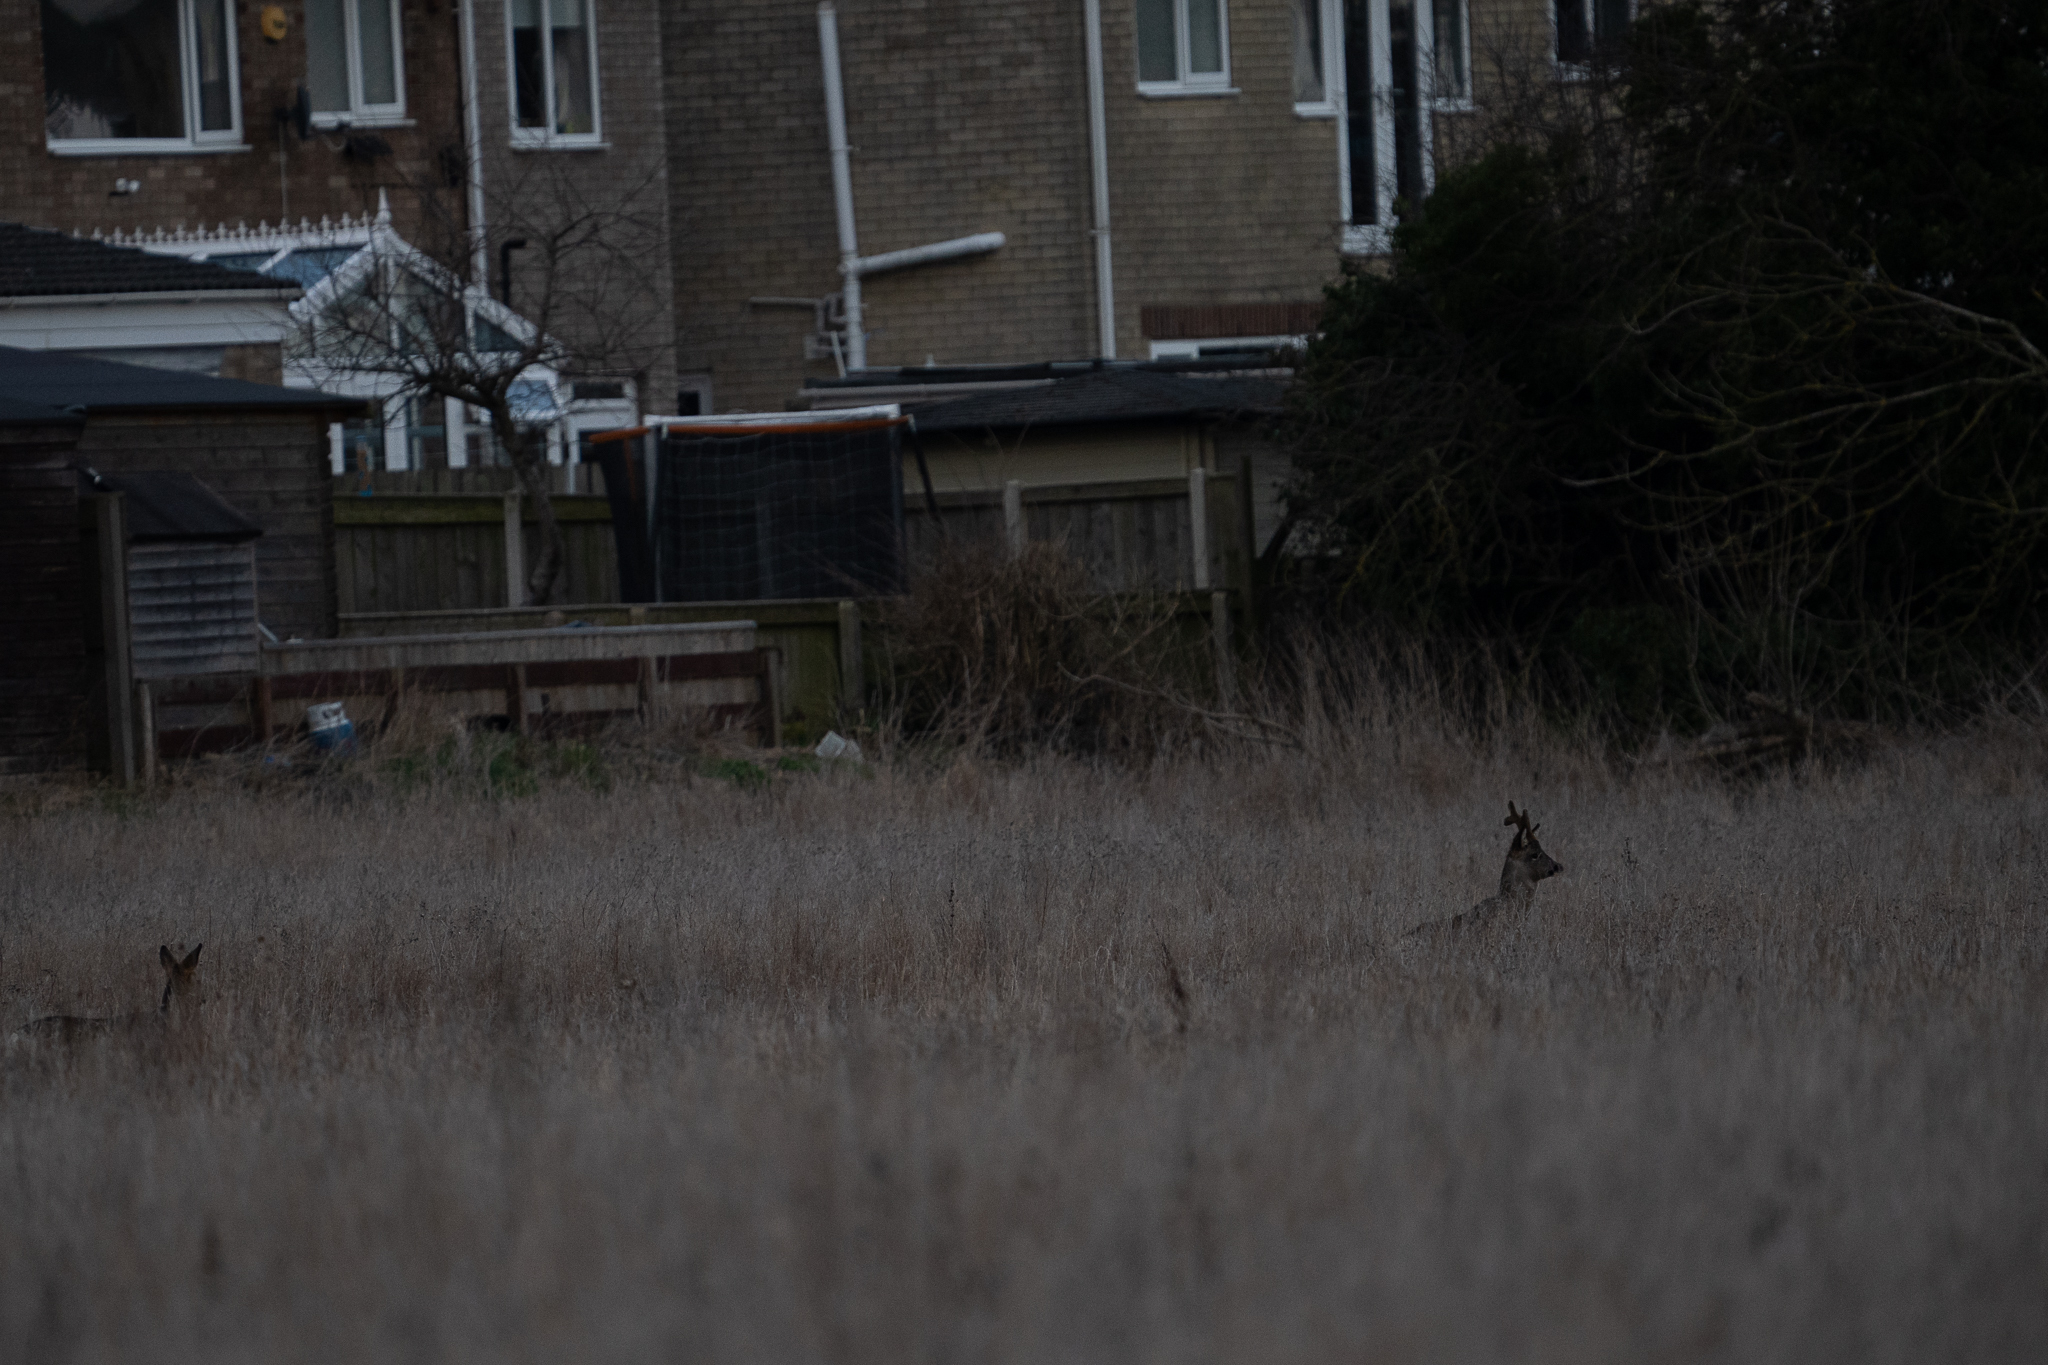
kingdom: Animalia
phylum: Chordata
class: Mammalia
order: Artiodactyla
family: Cervidae
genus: Capreolus
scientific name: Capreolus capreolus
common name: Western roe deer
